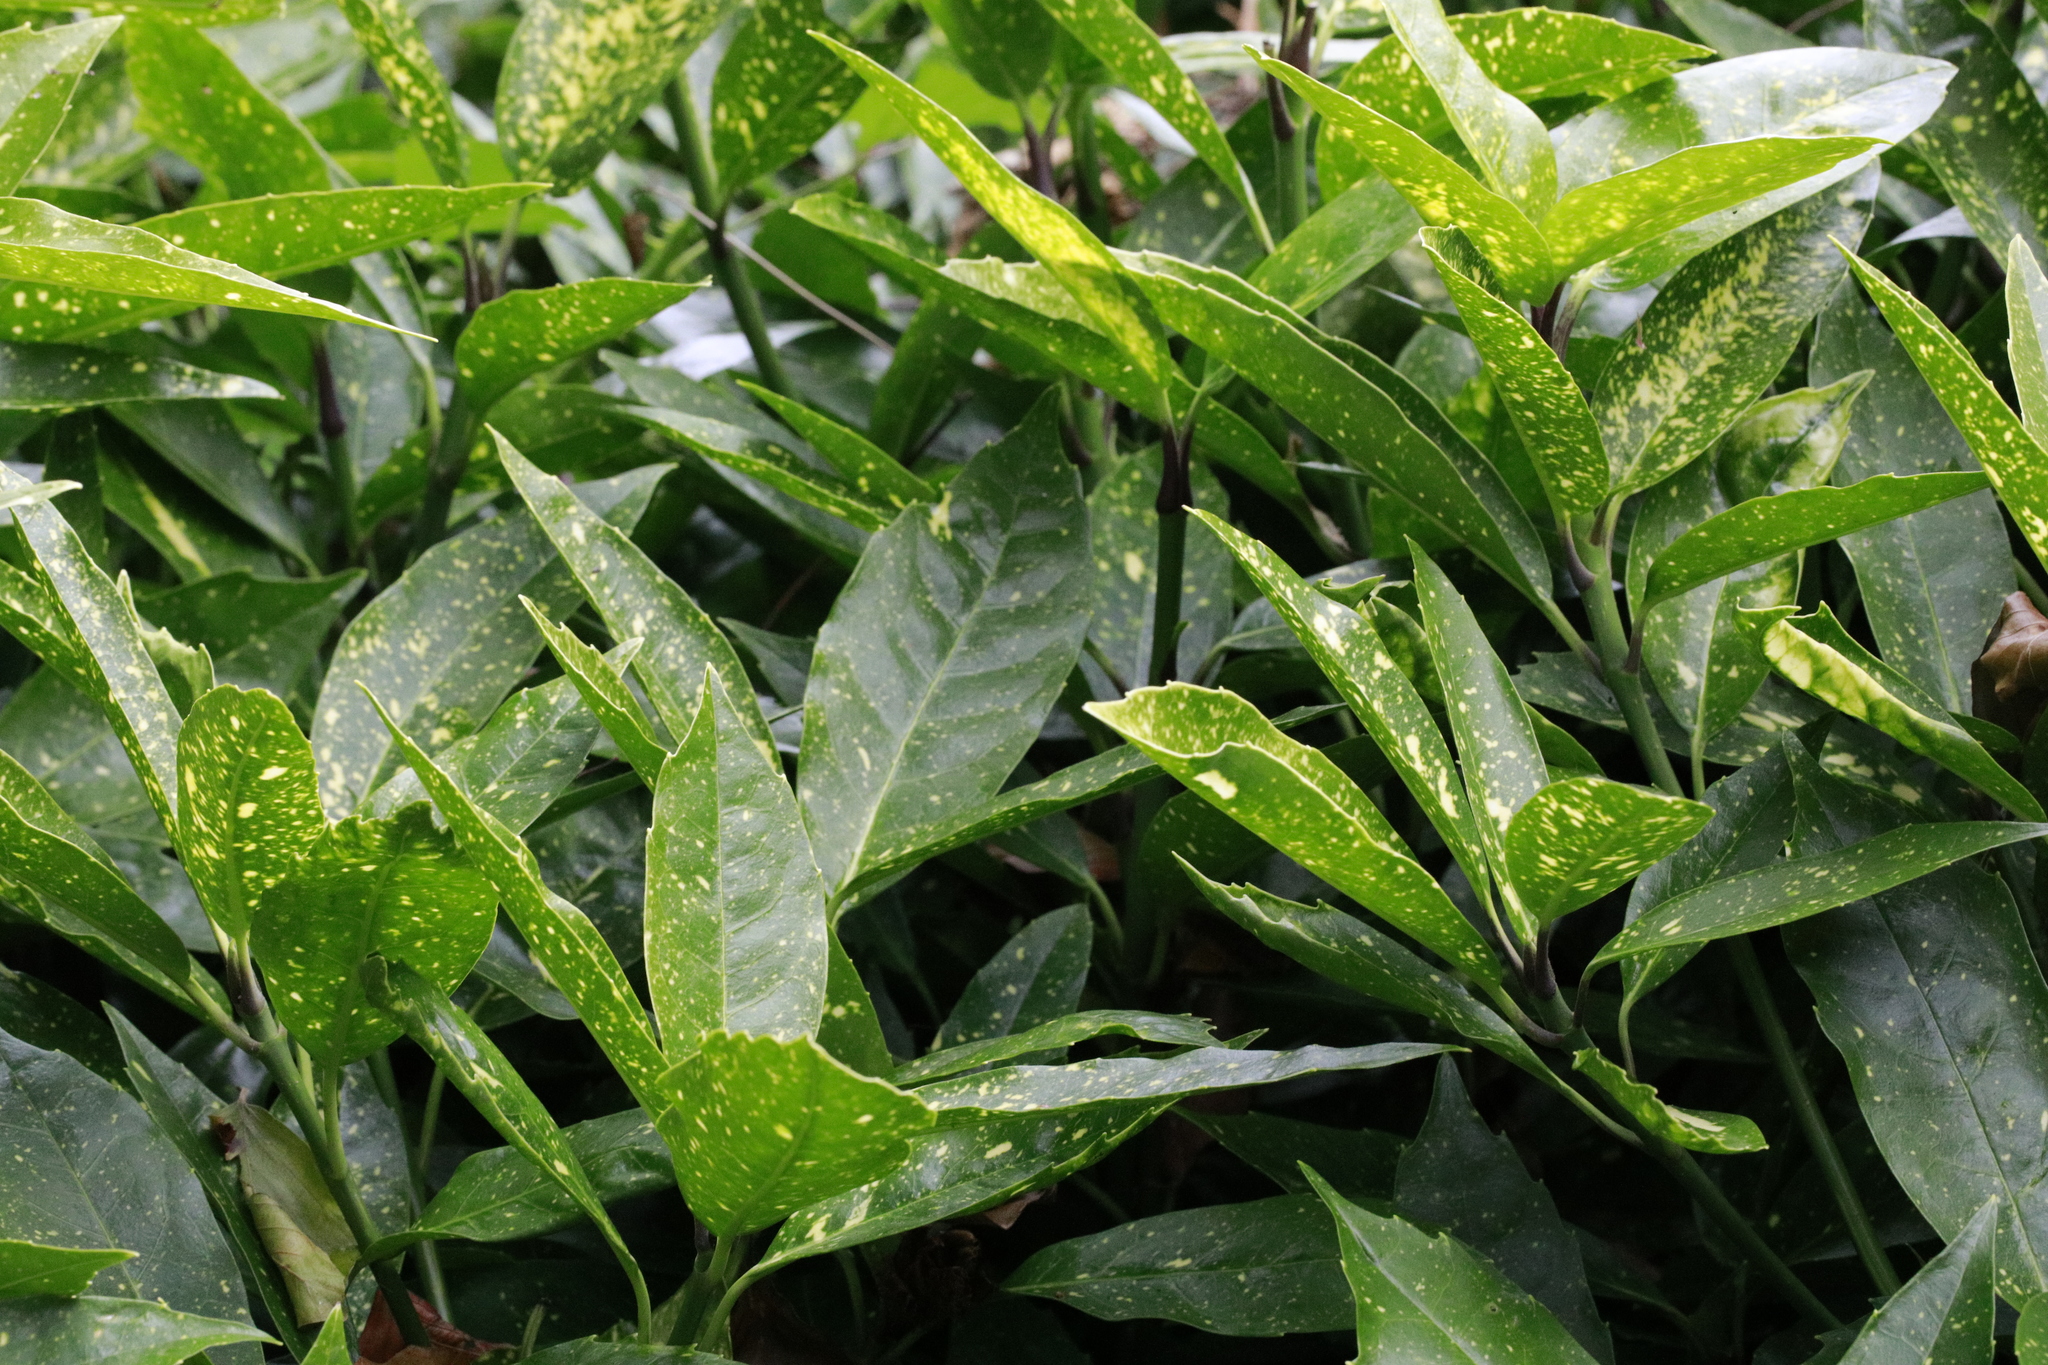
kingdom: Plantae
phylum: Tracheophyta
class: Magnoliopsida
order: Garryales
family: Garryaceae
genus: Aucuba
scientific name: Aucuba japonica
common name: Spotted-laurel
